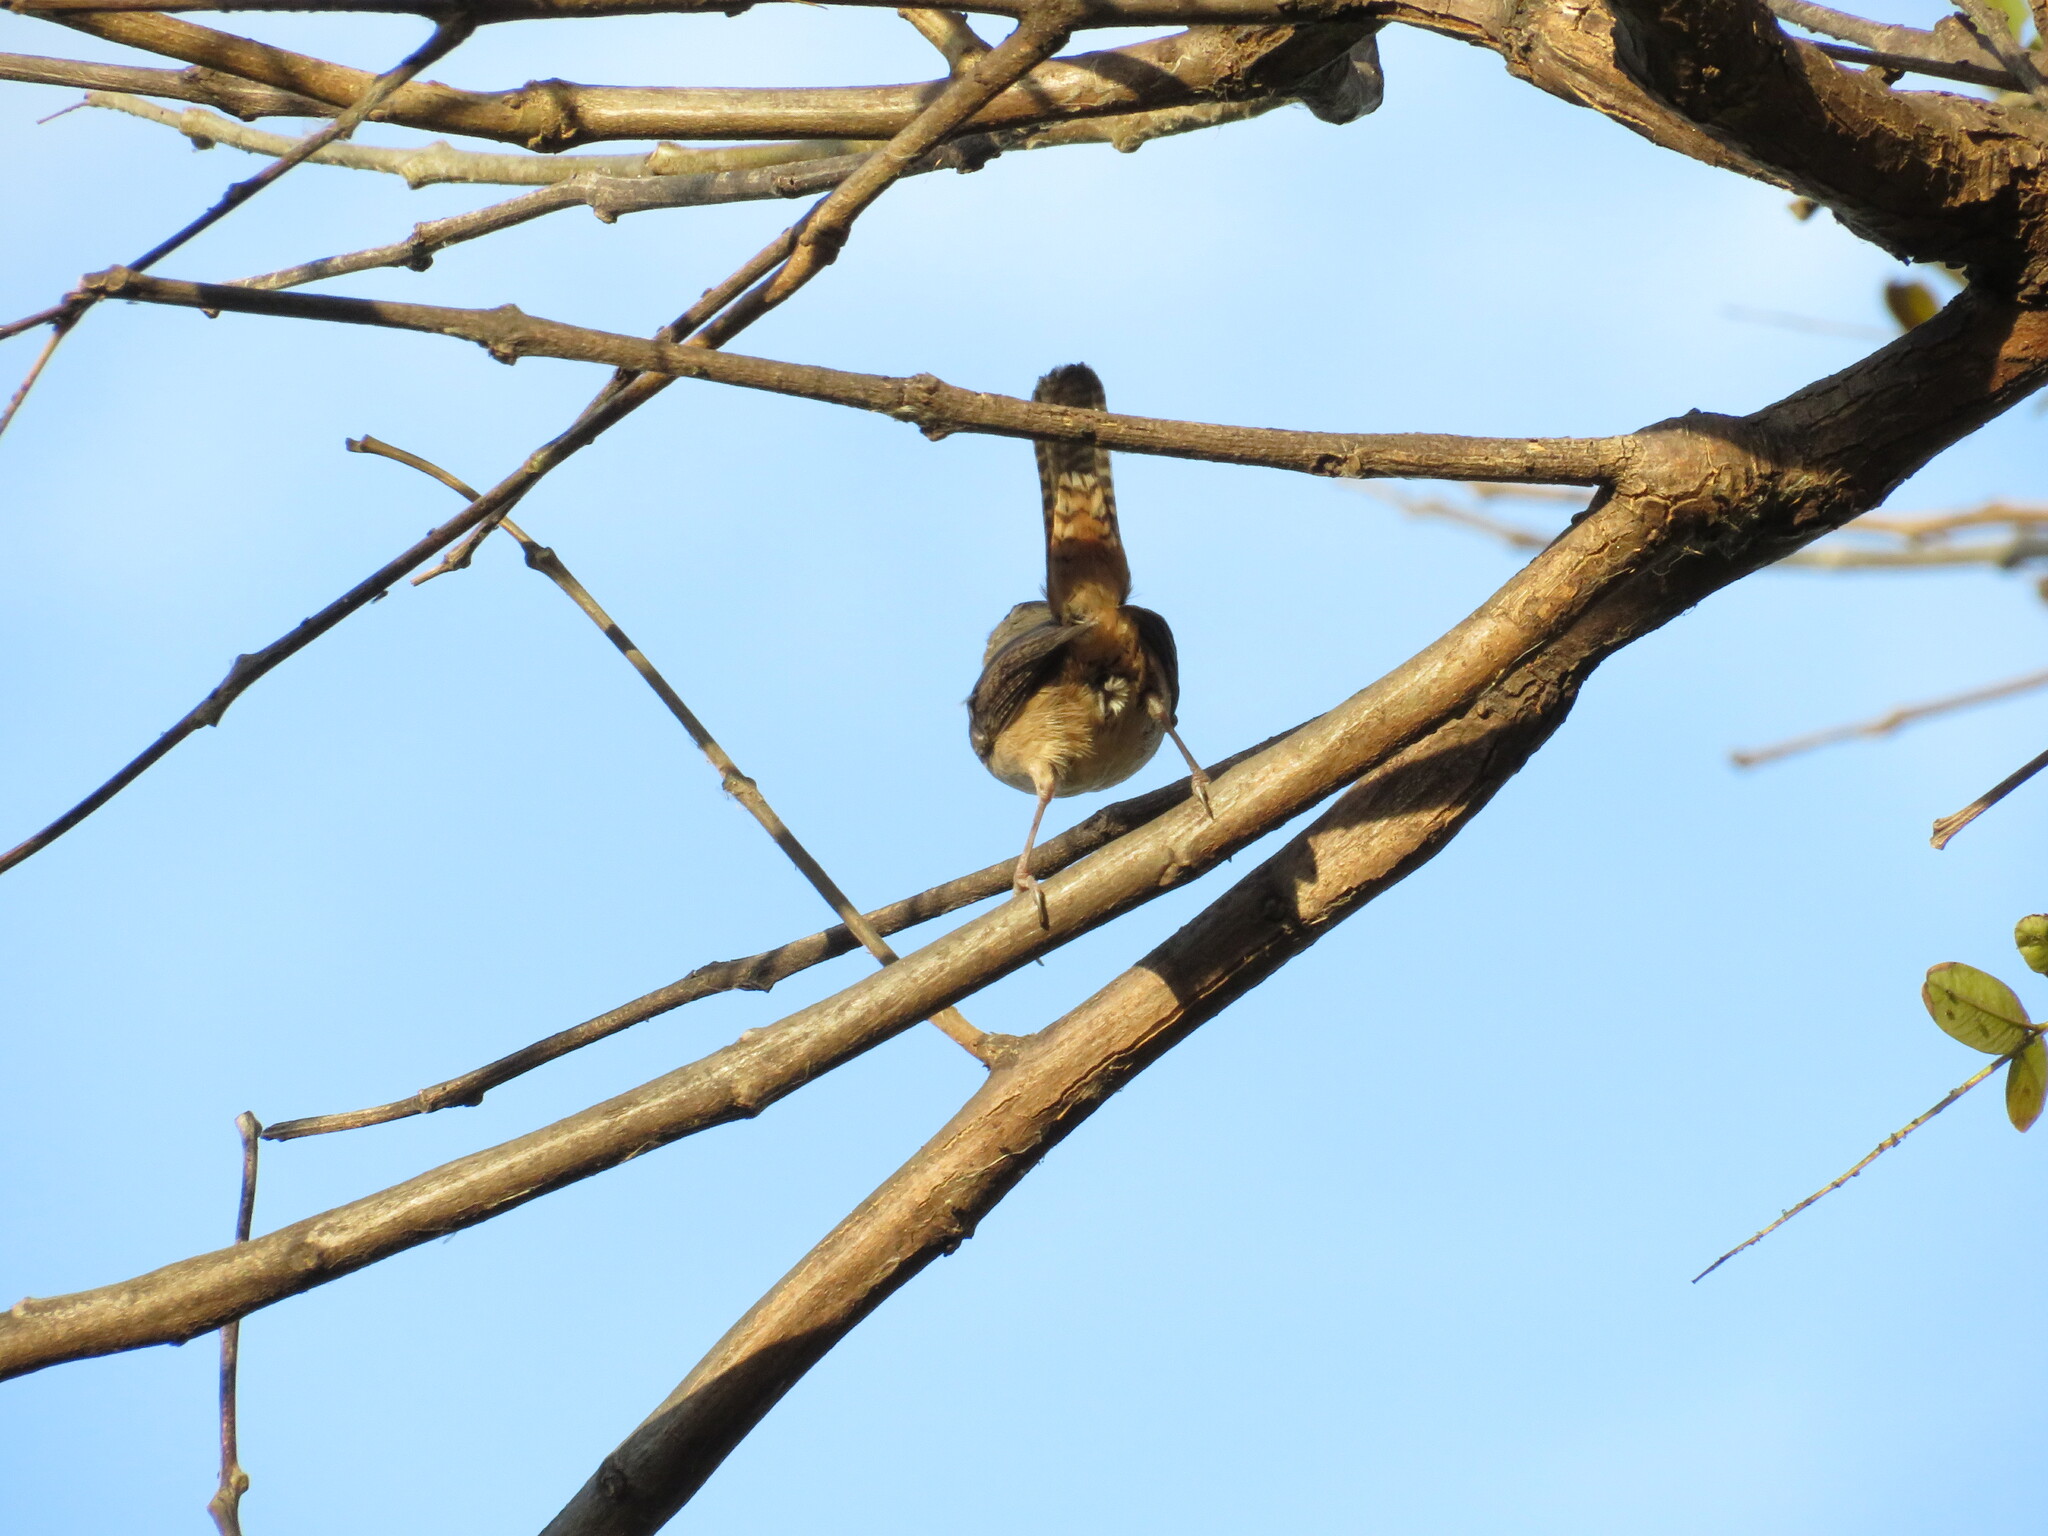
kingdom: Animalia
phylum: Chordata
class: Aves
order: Passeriformes
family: Troglodytidae
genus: Troglodytes
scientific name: Troglodytes aedon
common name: House wren
